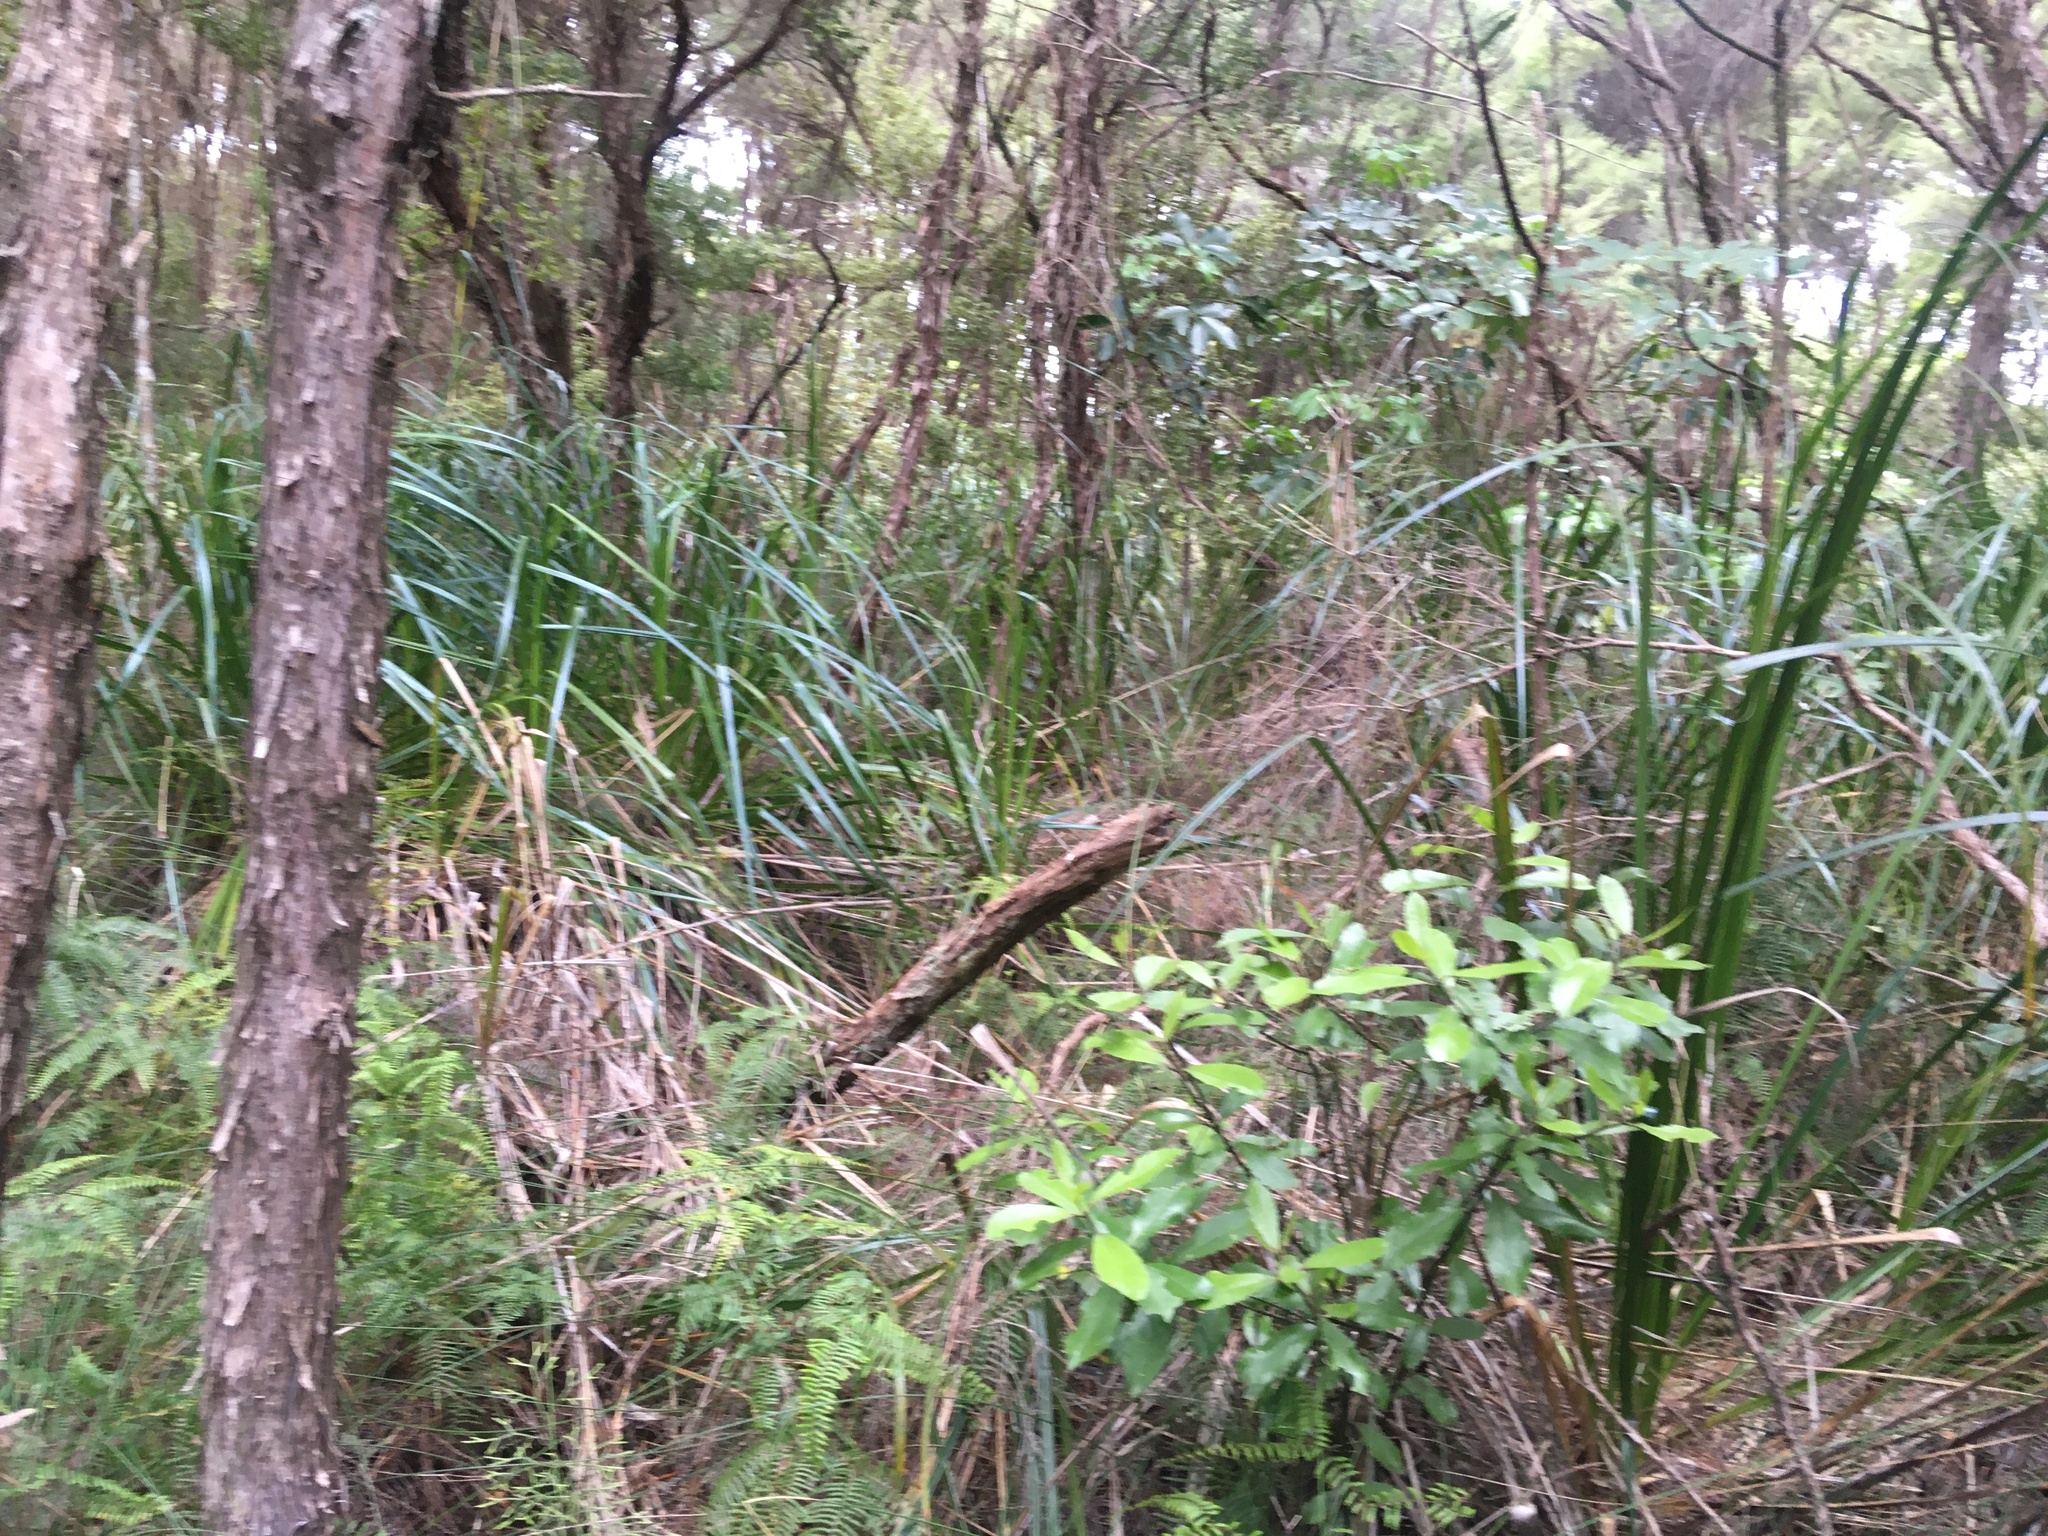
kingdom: Plantae
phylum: Tracheophyta
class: Magnoliopsida
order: Laurales
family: Monimiaceae
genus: Hedycarya
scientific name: Hedycarya arborea
